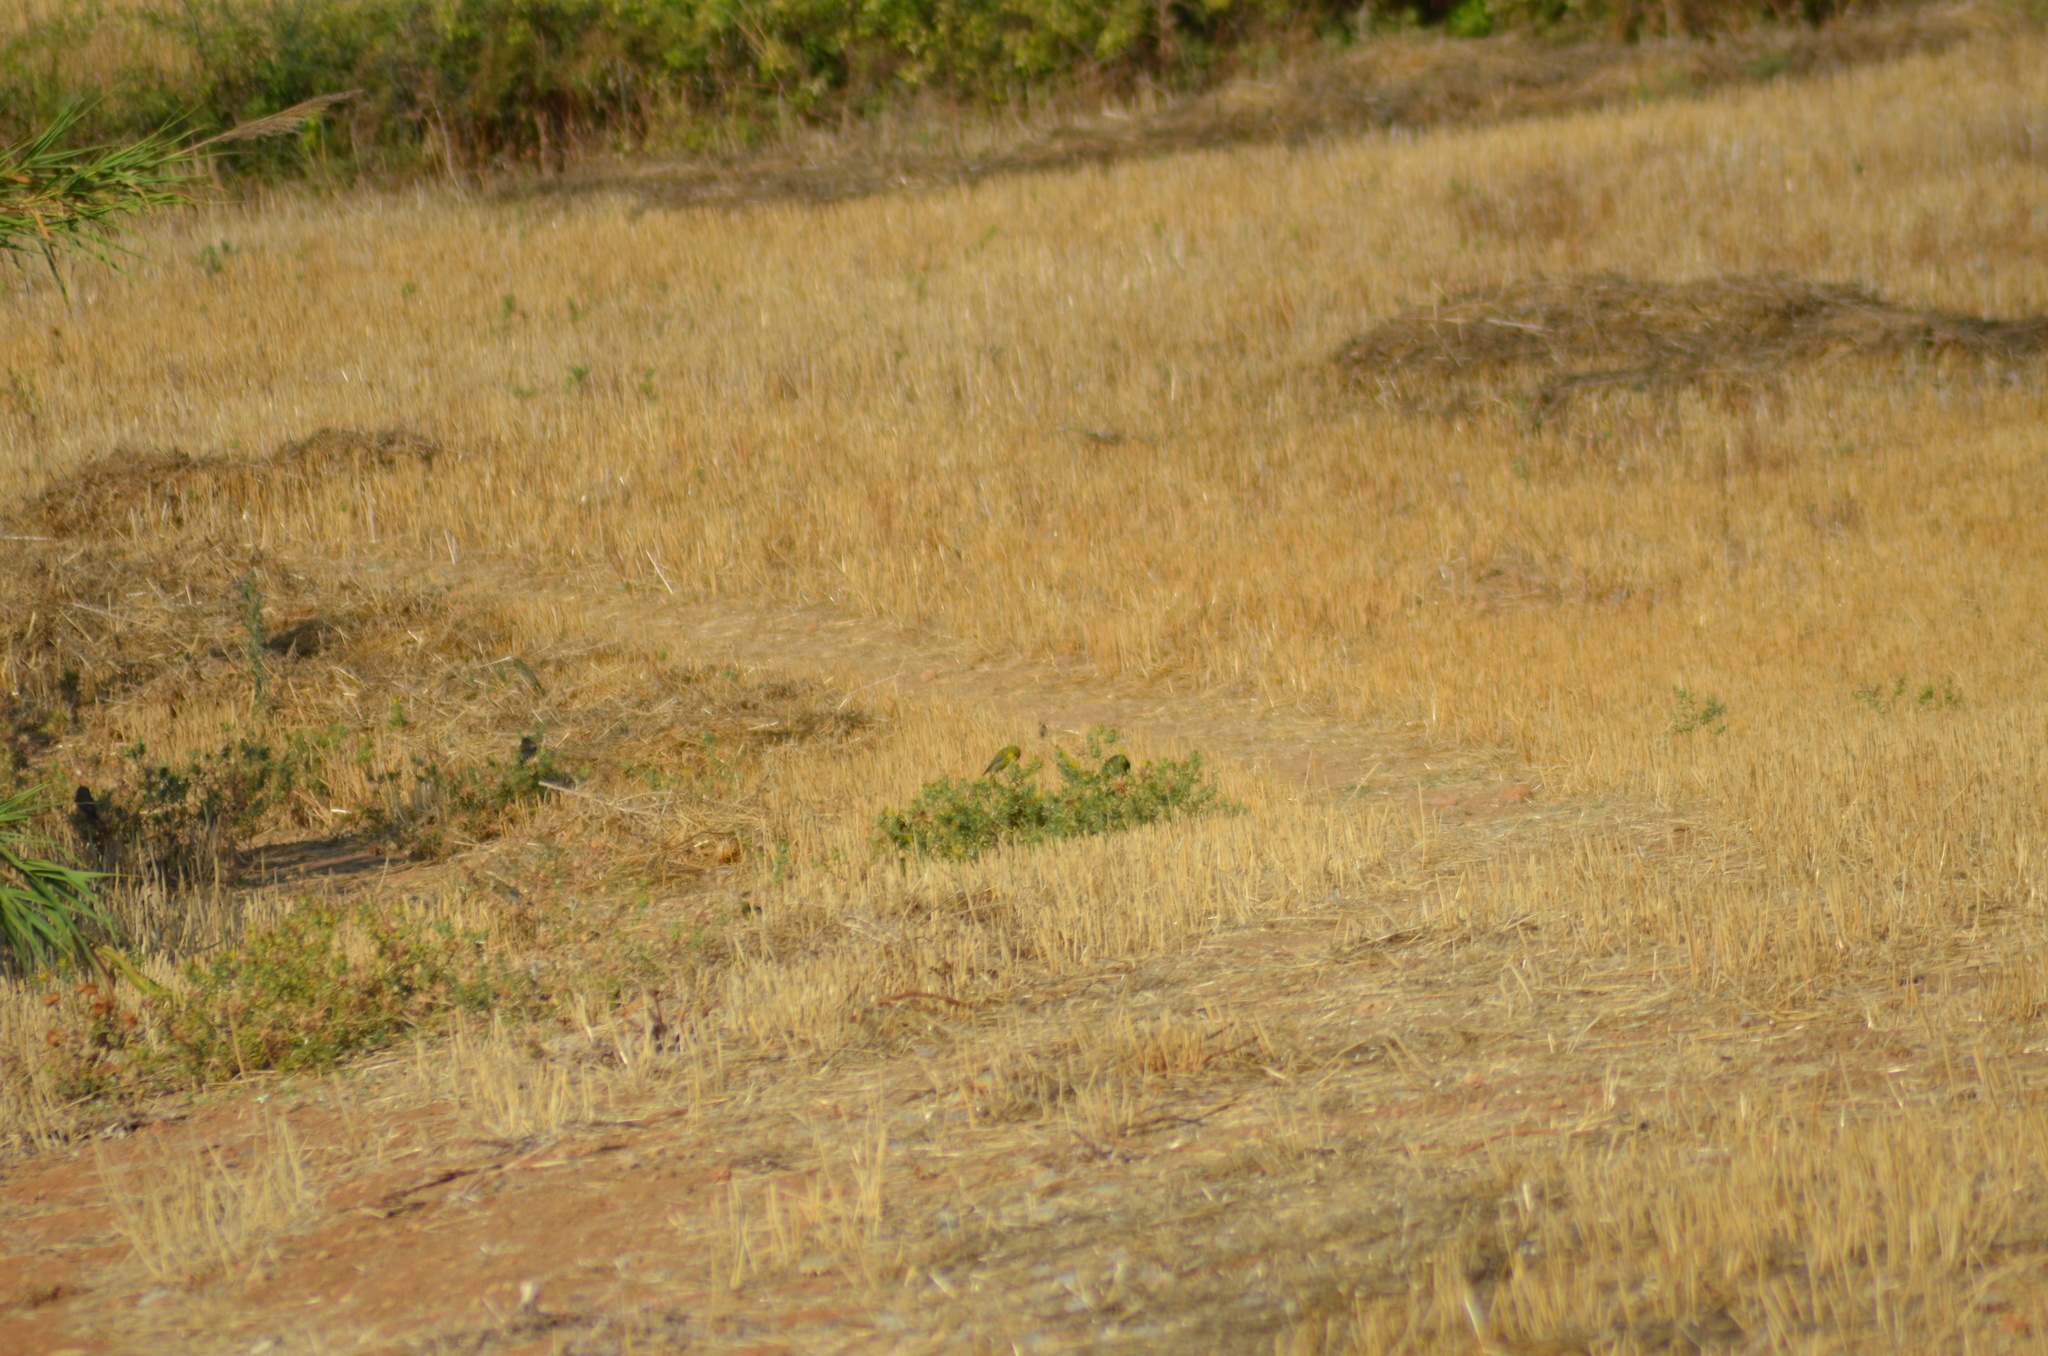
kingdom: Plantae
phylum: Tracheophyta
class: Liliopsida
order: Poales
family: Poaceae
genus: Chloris
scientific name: Chloris chloris
